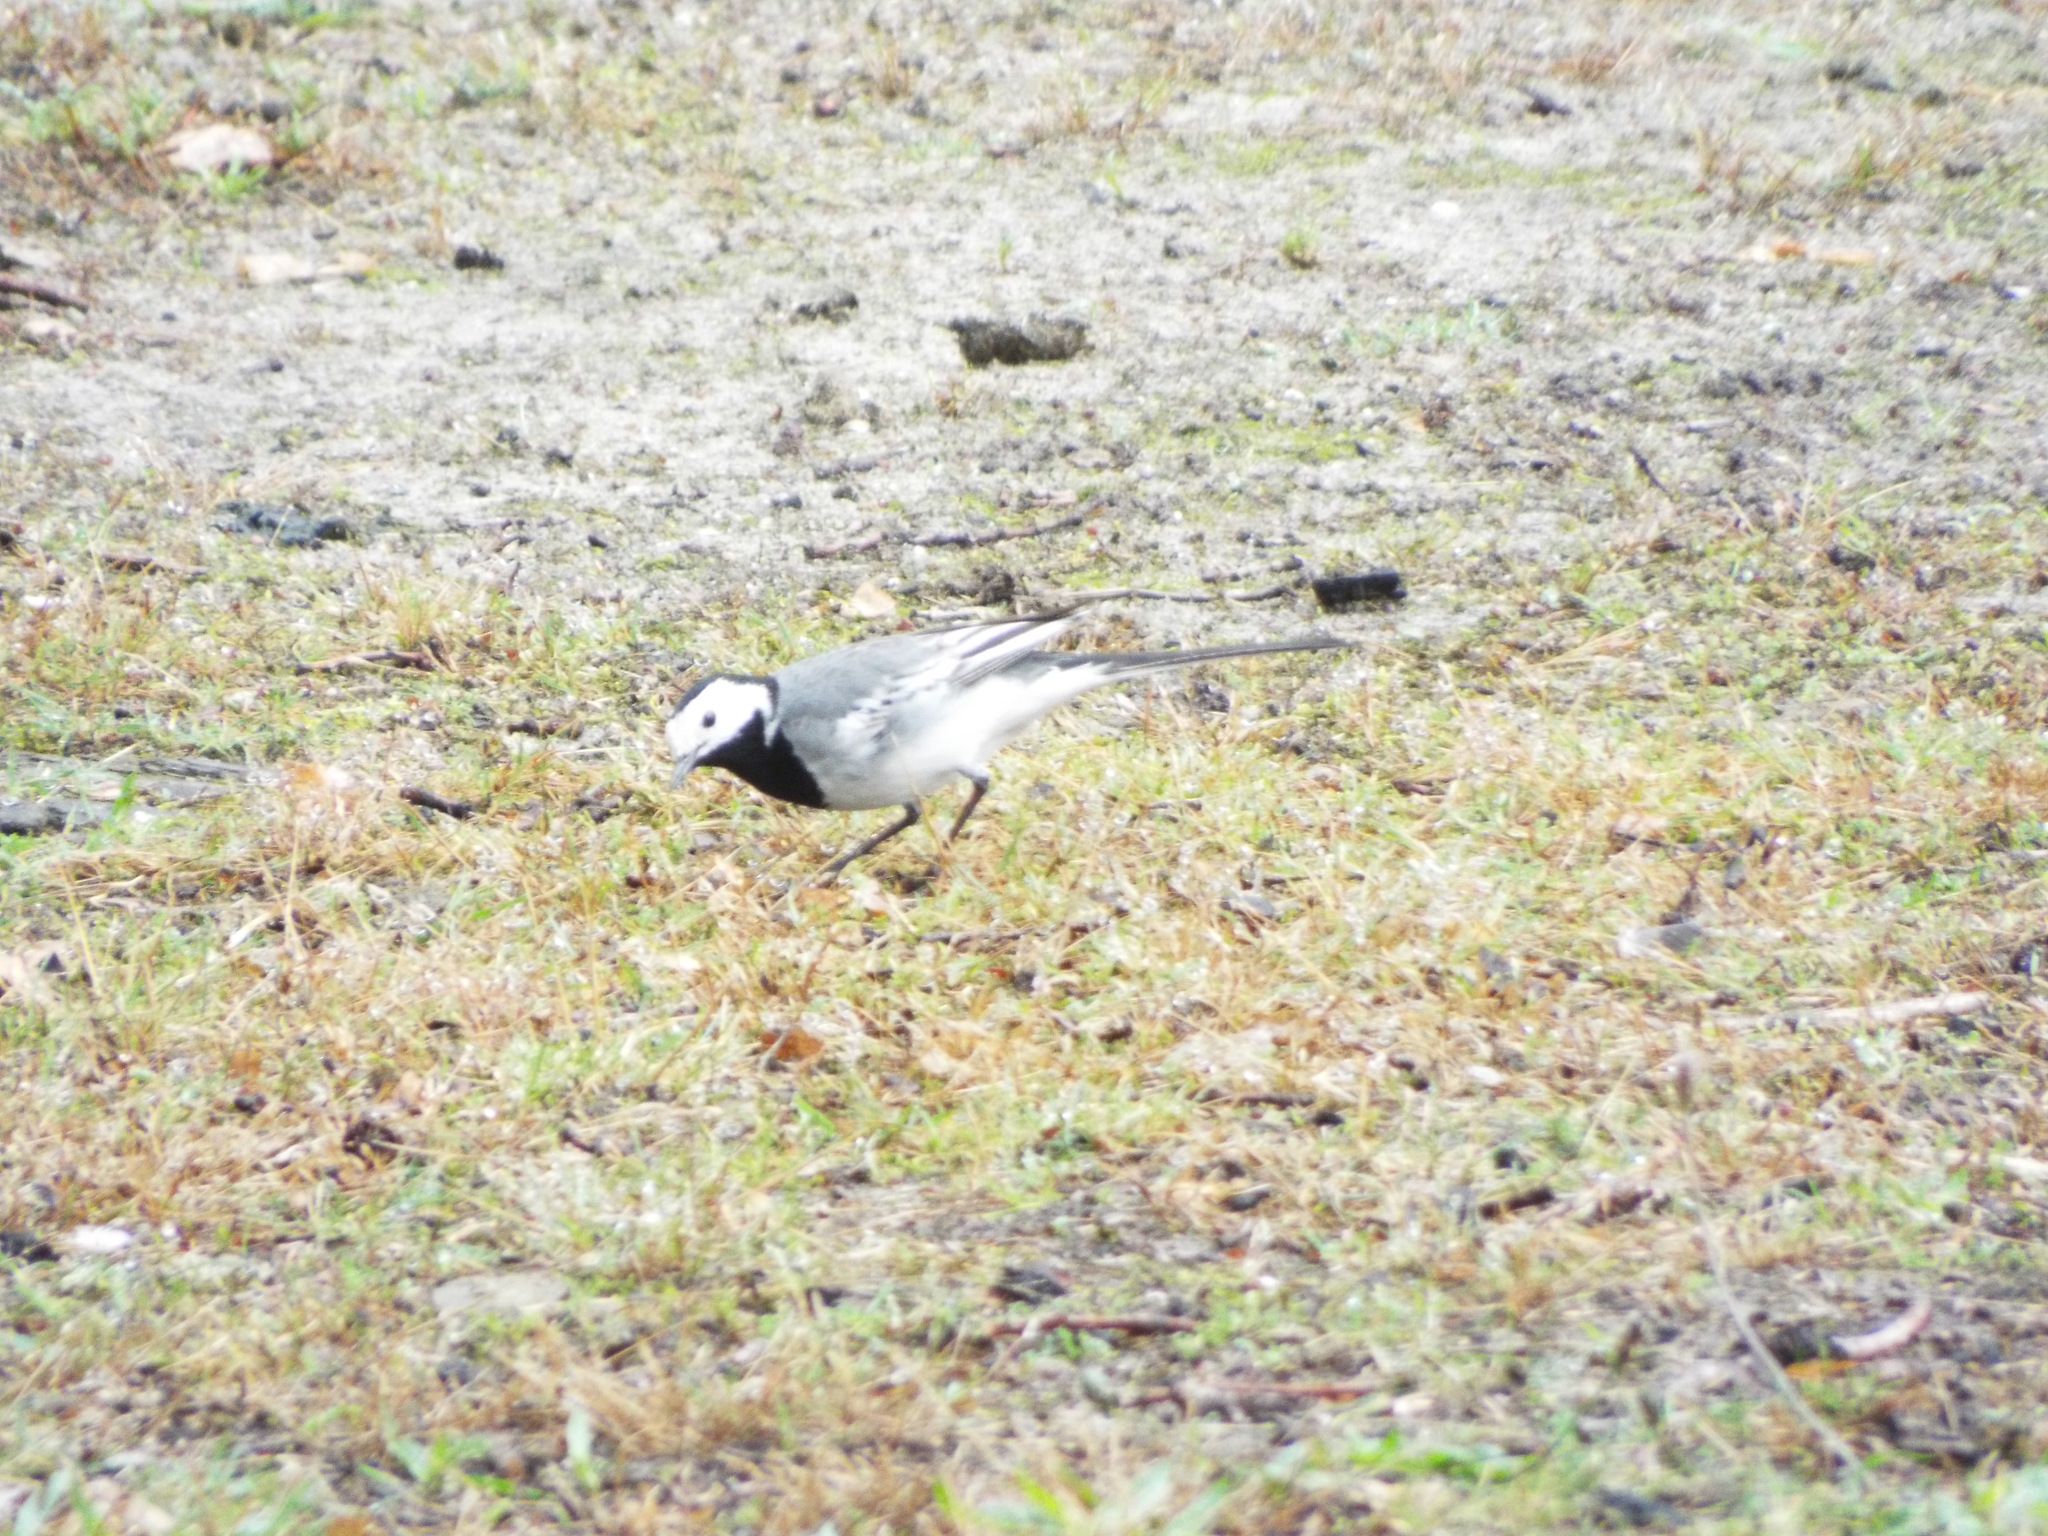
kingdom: Animalia
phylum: Chordata
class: Aves
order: Passeriformes
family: Motacillidae
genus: Motacilla
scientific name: Motacilla alba
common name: White wagtail
